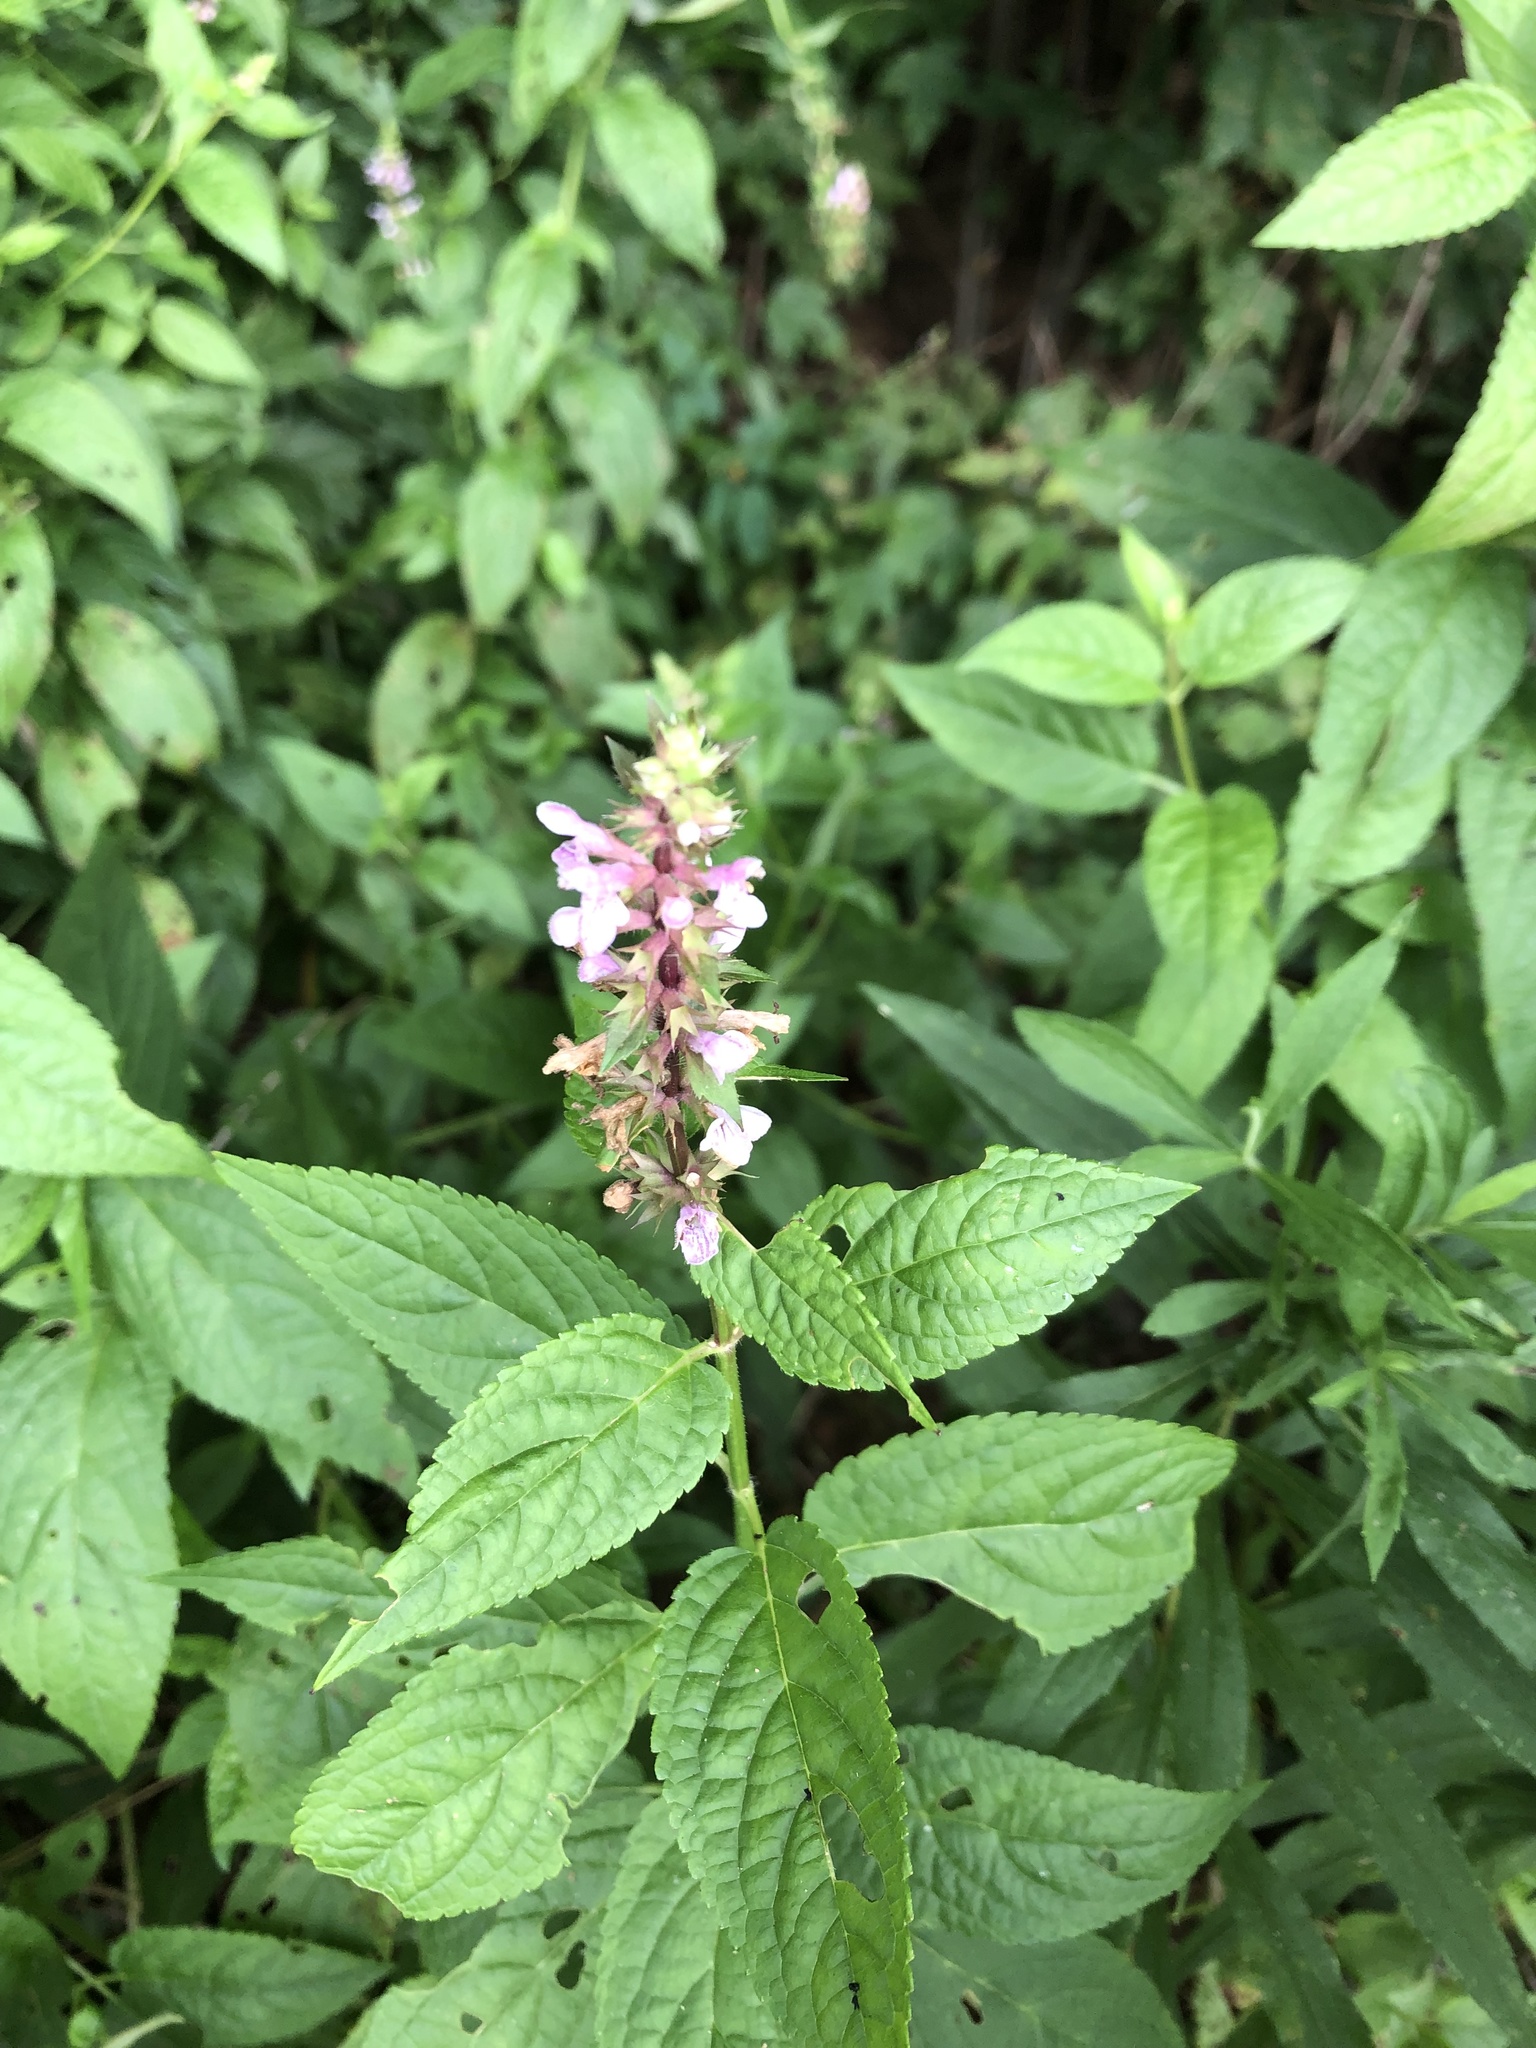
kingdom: Plantae
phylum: Tracheophyta
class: Magnoliopsida
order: Lamiales
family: Lamiaceae
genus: Stachys
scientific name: Stachys hispida
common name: Hispid hedge-nettle
